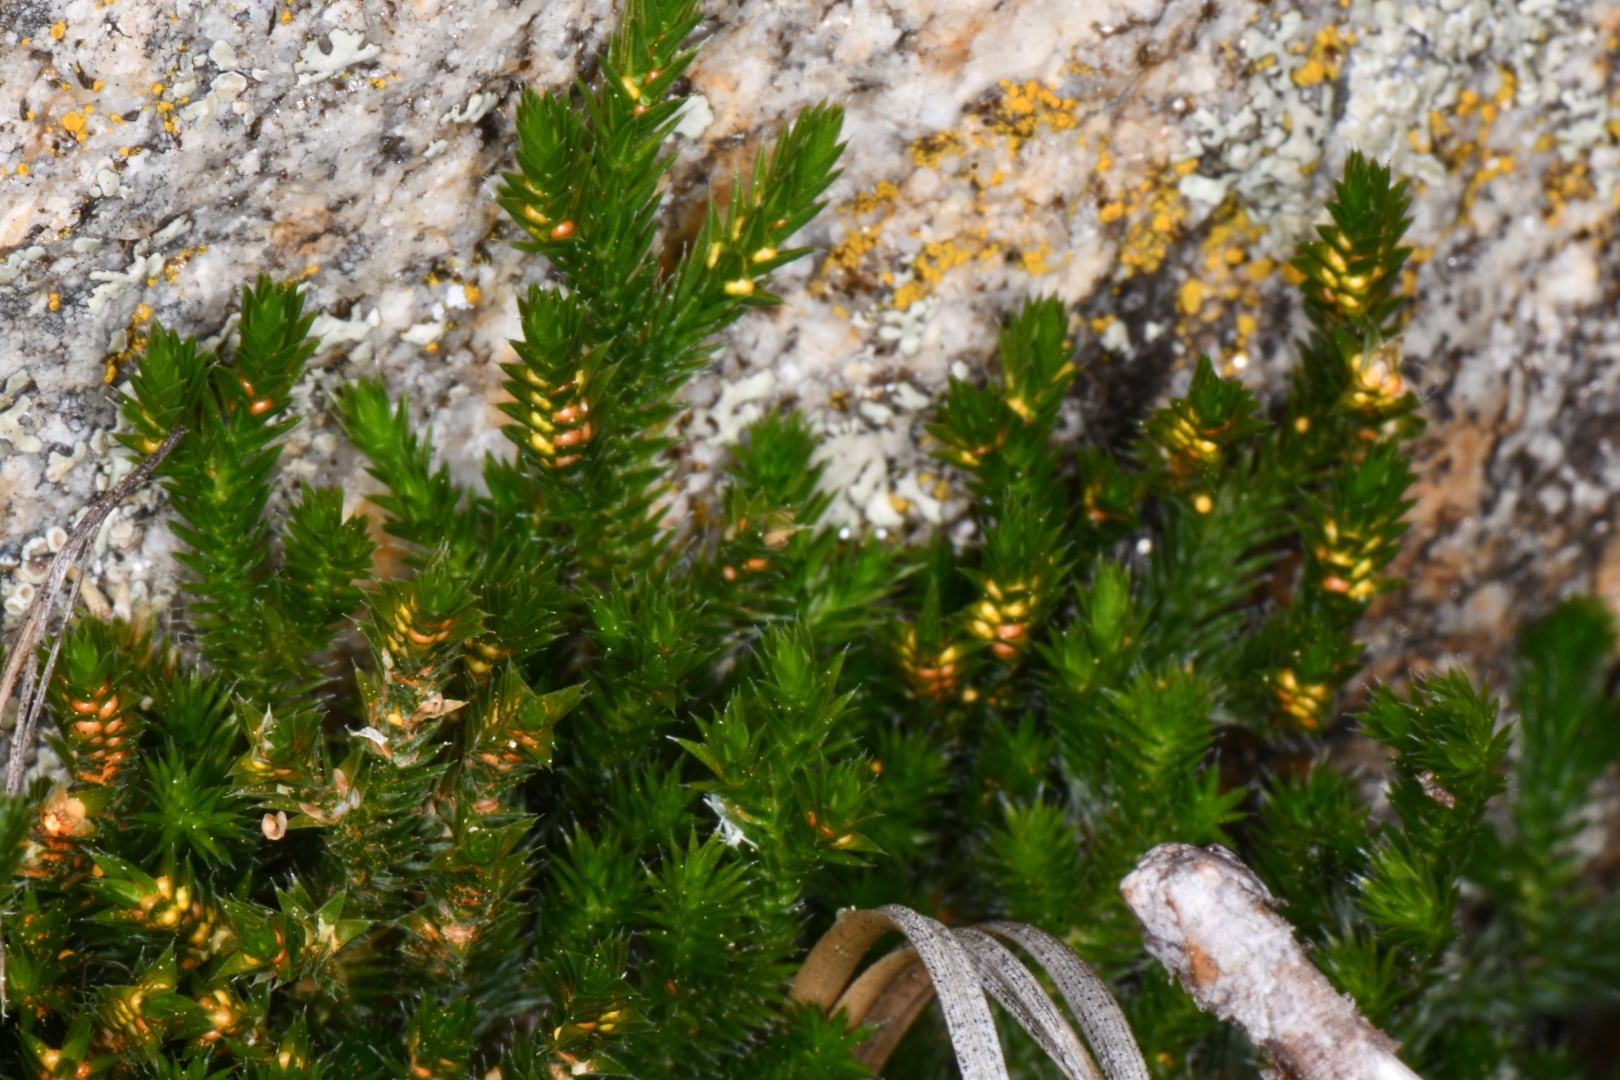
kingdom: Plantae
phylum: Tracheophyta
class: Lycopodiopsida
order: Selaginellales
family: Selaginellaceae
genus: Selaginella
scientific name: Selaginella wallacei
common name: Wallace's selaginella
